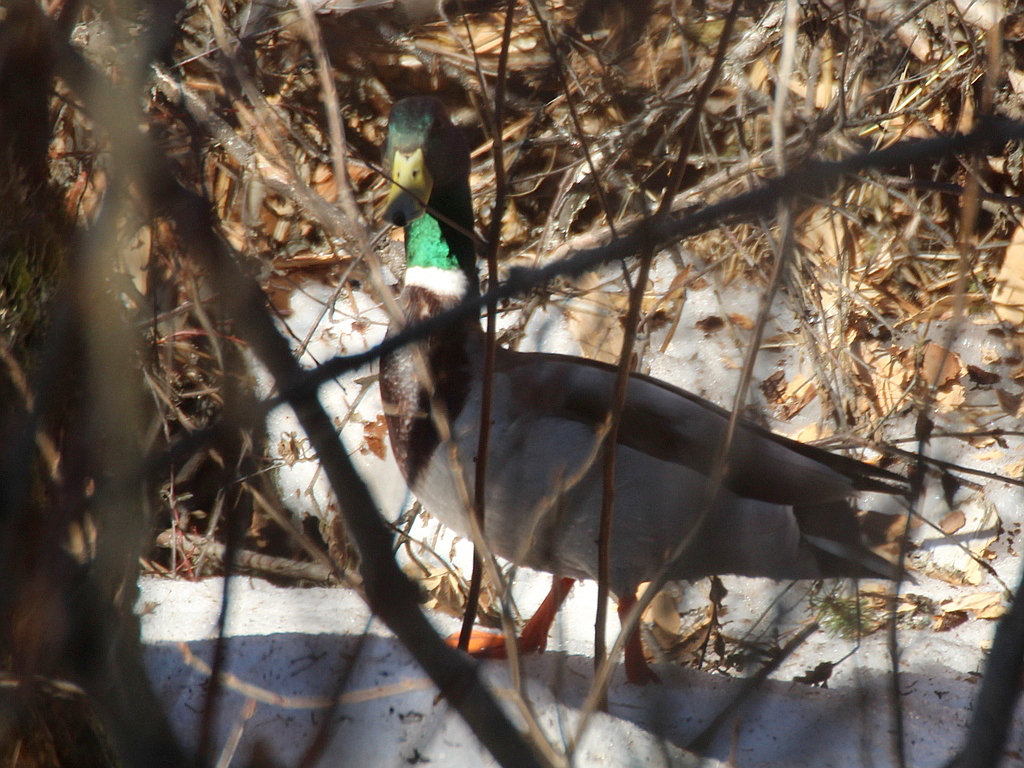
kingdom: Animalia
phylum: Chordata
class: Aves
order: Anseriformes
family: Anatidae
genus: Anas
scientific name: Anas platyrhynchos
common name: Mallard
